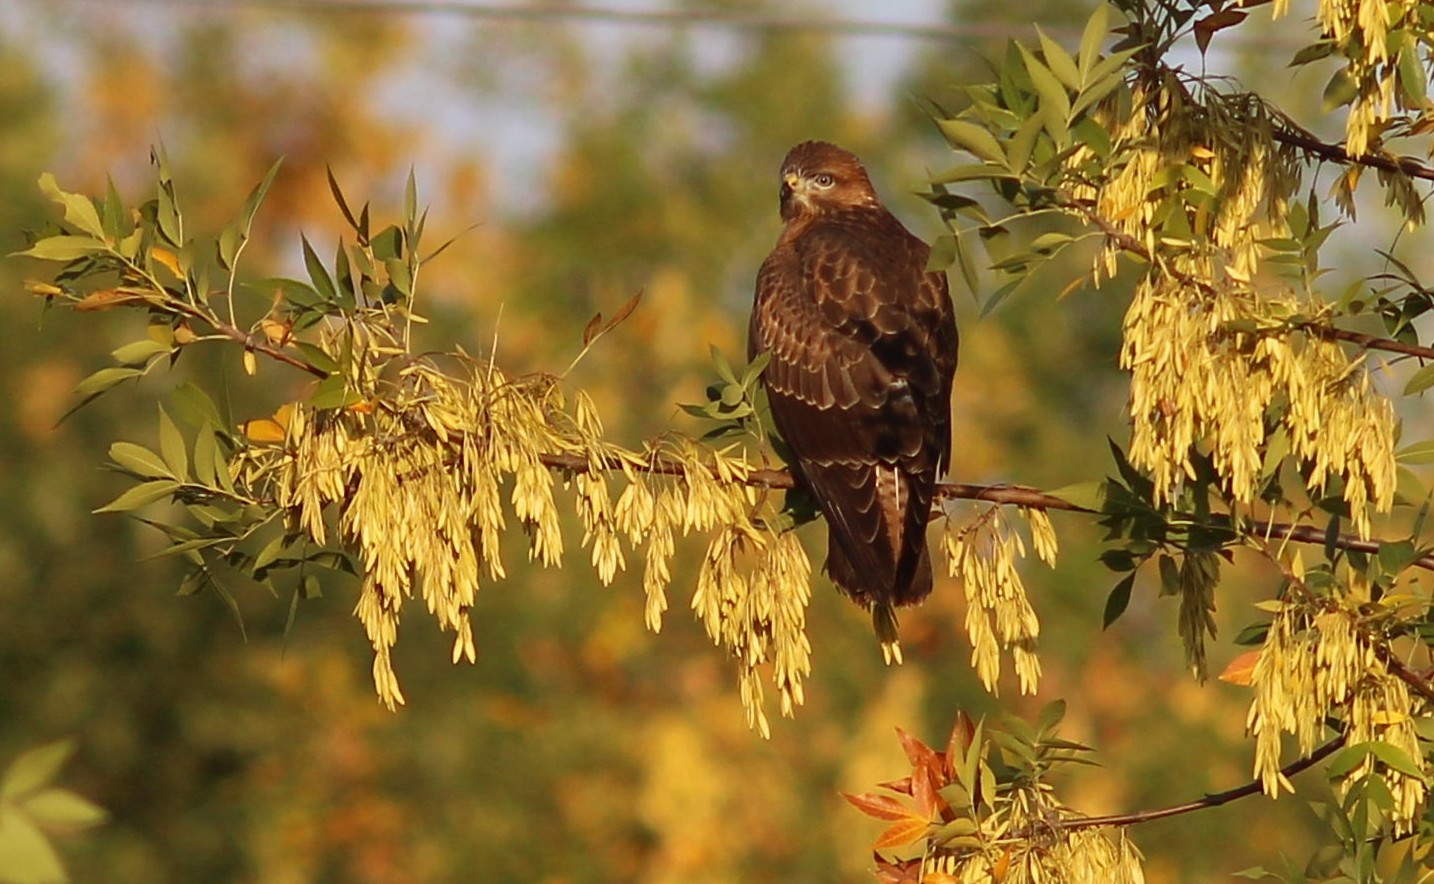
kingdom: Animalia
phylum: Chordata
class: Aves
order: Accipitriformes
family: Accipitridae
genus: Buteo
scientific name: Buteo buteo
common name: Common buzzard
